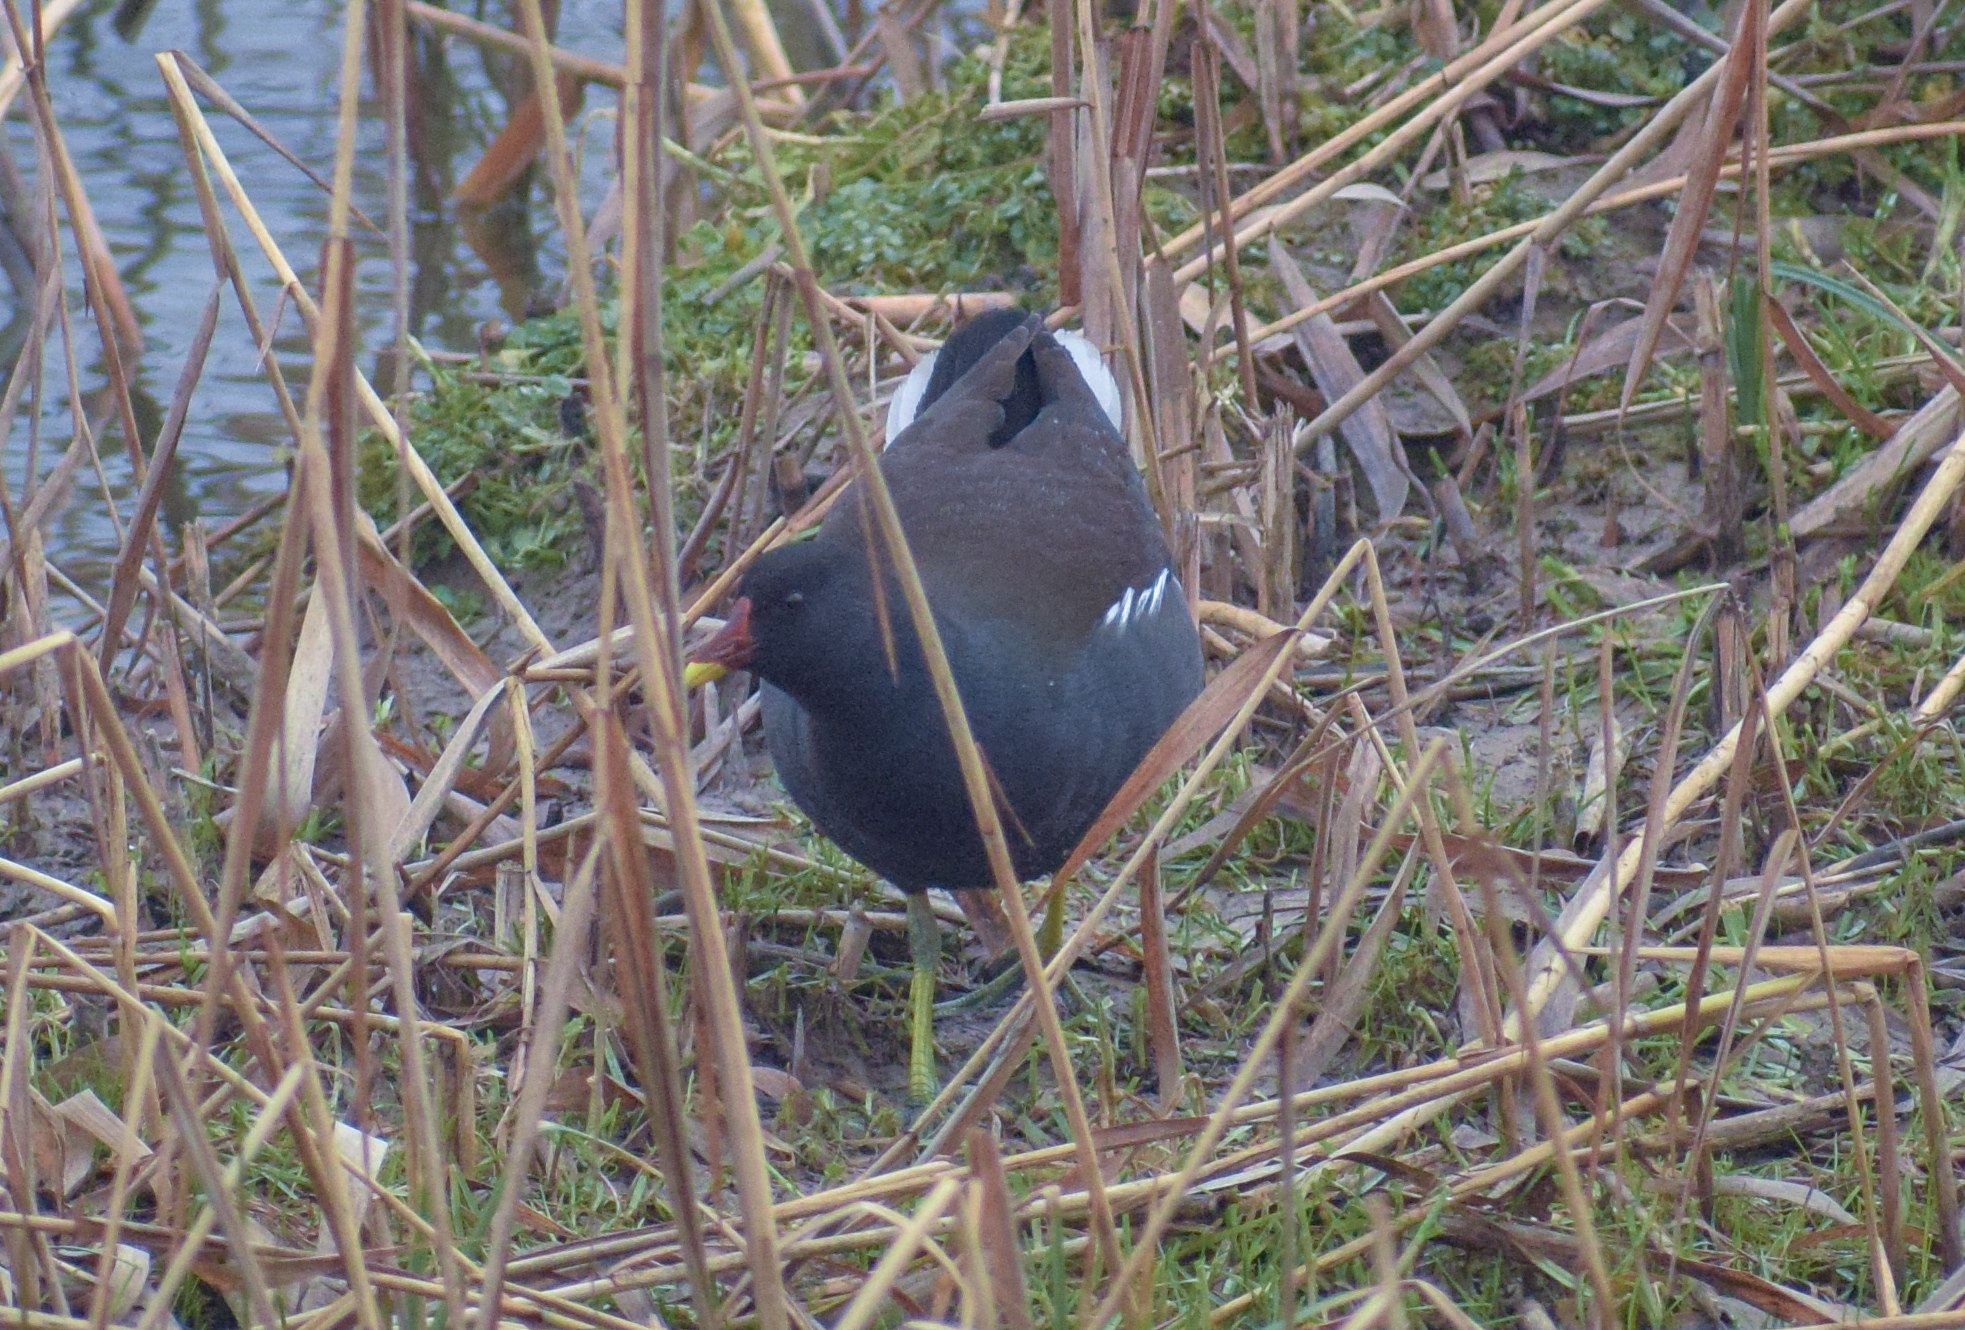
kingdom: Animalia
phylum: Chordata
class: Aves
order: Gruiformes
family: Rallidae
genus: Gallinula
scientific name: Gallinula chloropus
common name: Common moorhen
